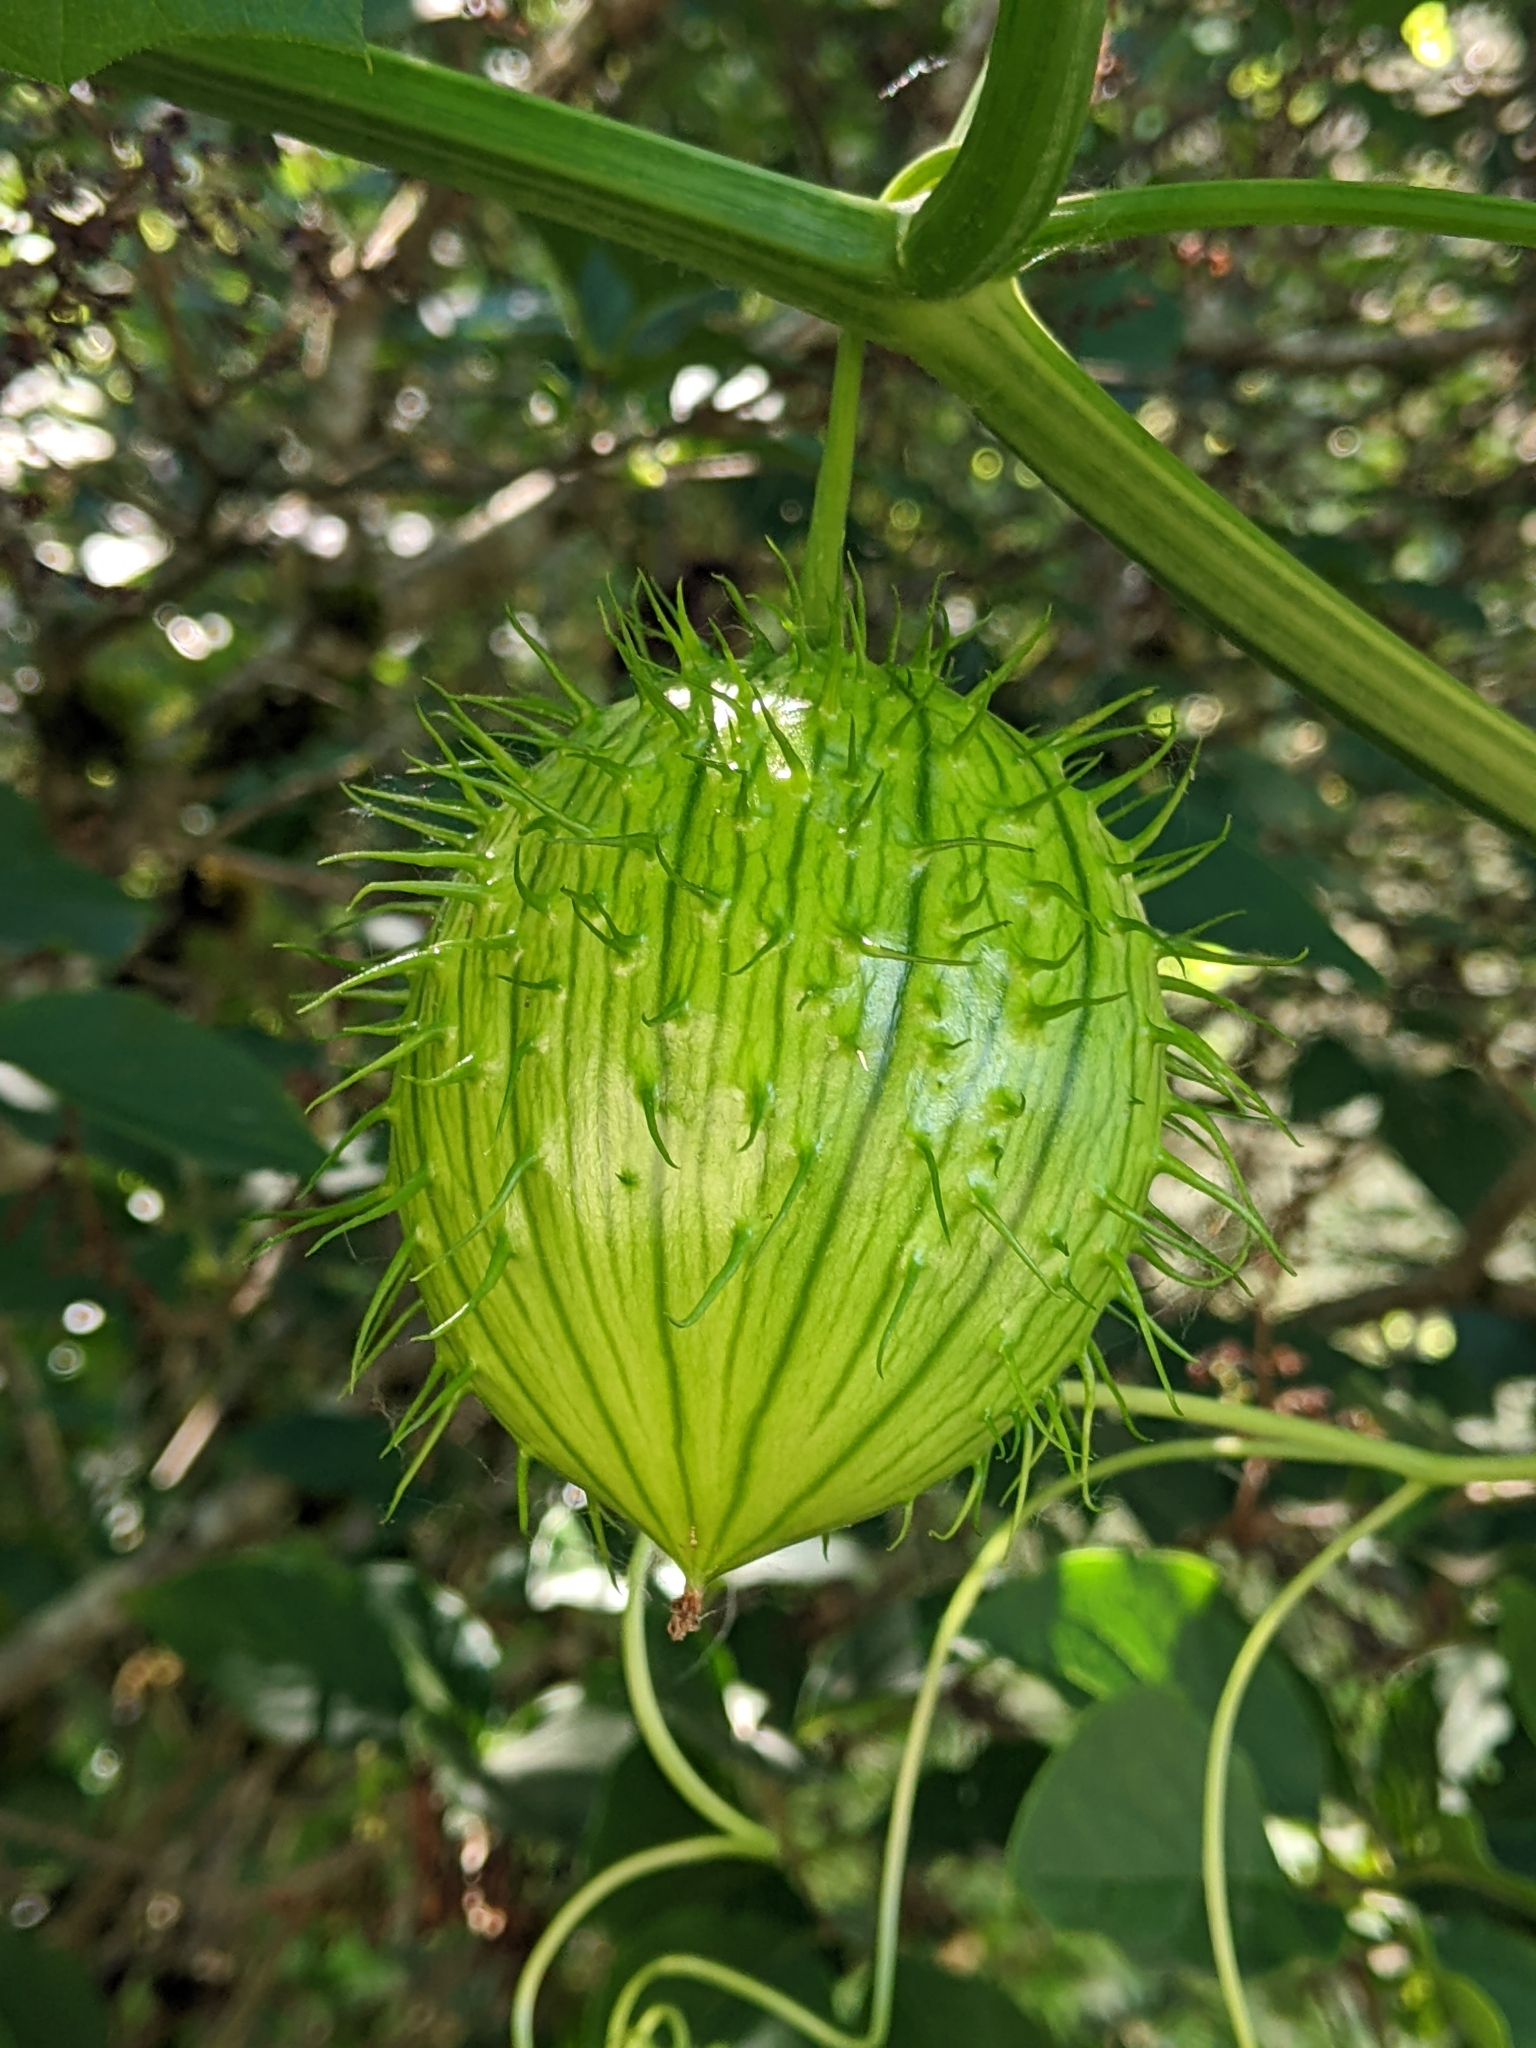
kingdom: Plantae
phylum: Tracheophyta
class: Magnoliopsida
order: Cucurbitales
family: Cucurbitaceae
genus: Marah
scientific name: Marah oregana
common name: Coastal manroot
